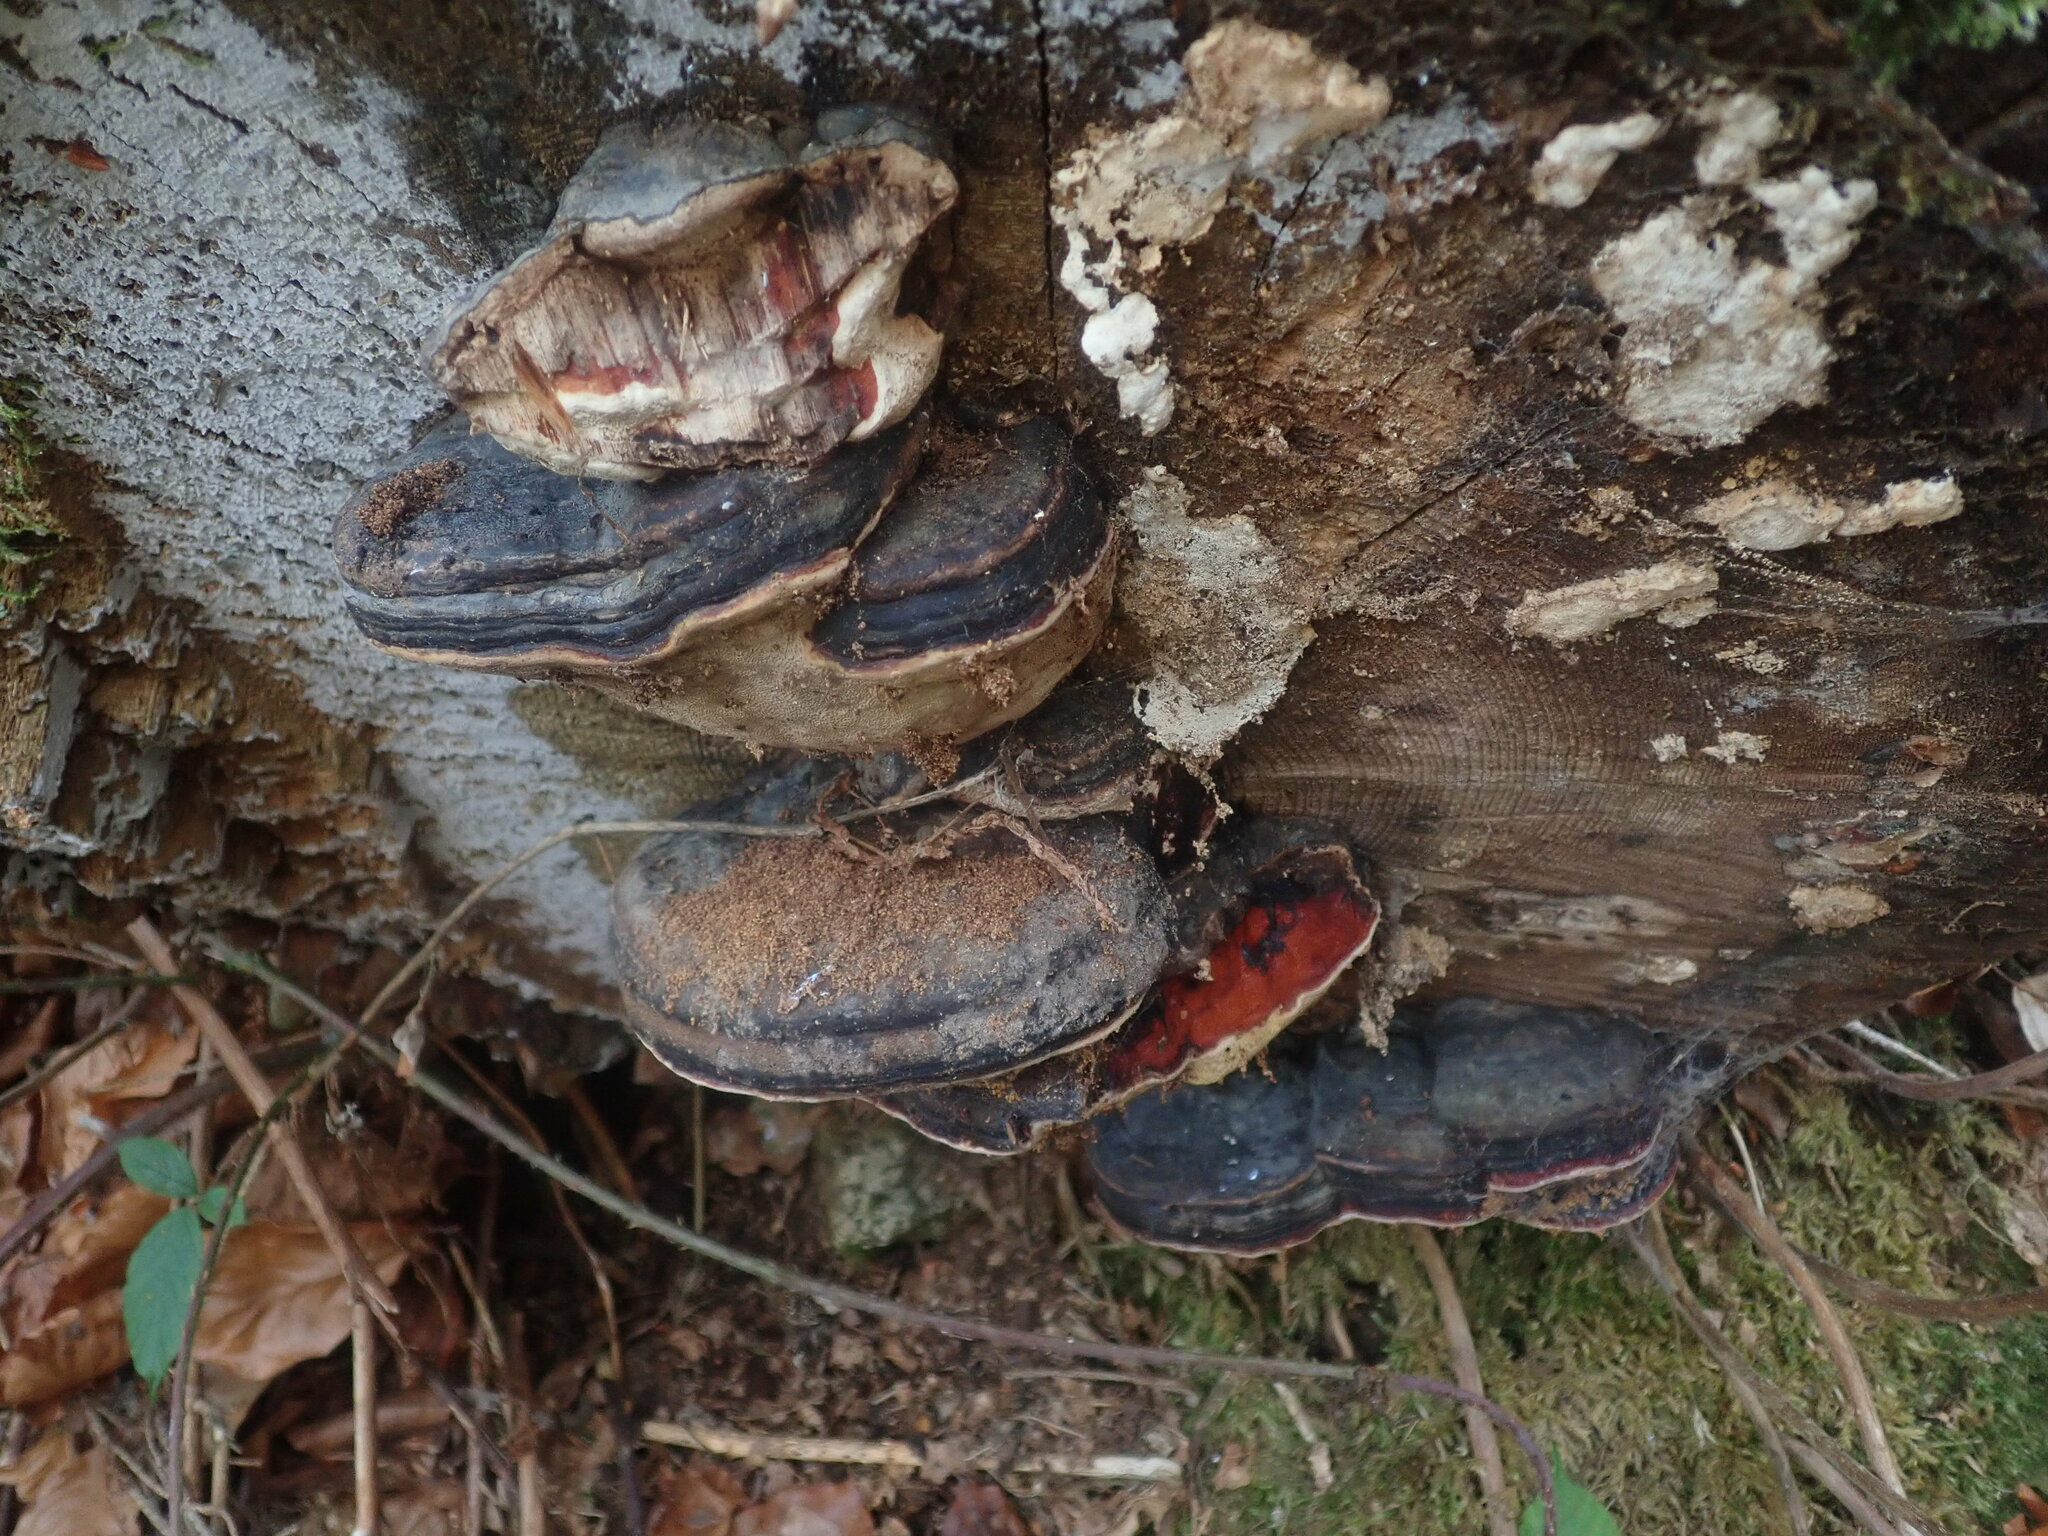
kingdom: Fungi
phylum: Basidiomycota
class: Agaricomycetes
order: Polyporales
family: Fomitopsidaceae
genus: Fomitopsis
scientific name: Fomitopsis pinicola
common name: Red-belted bracket
